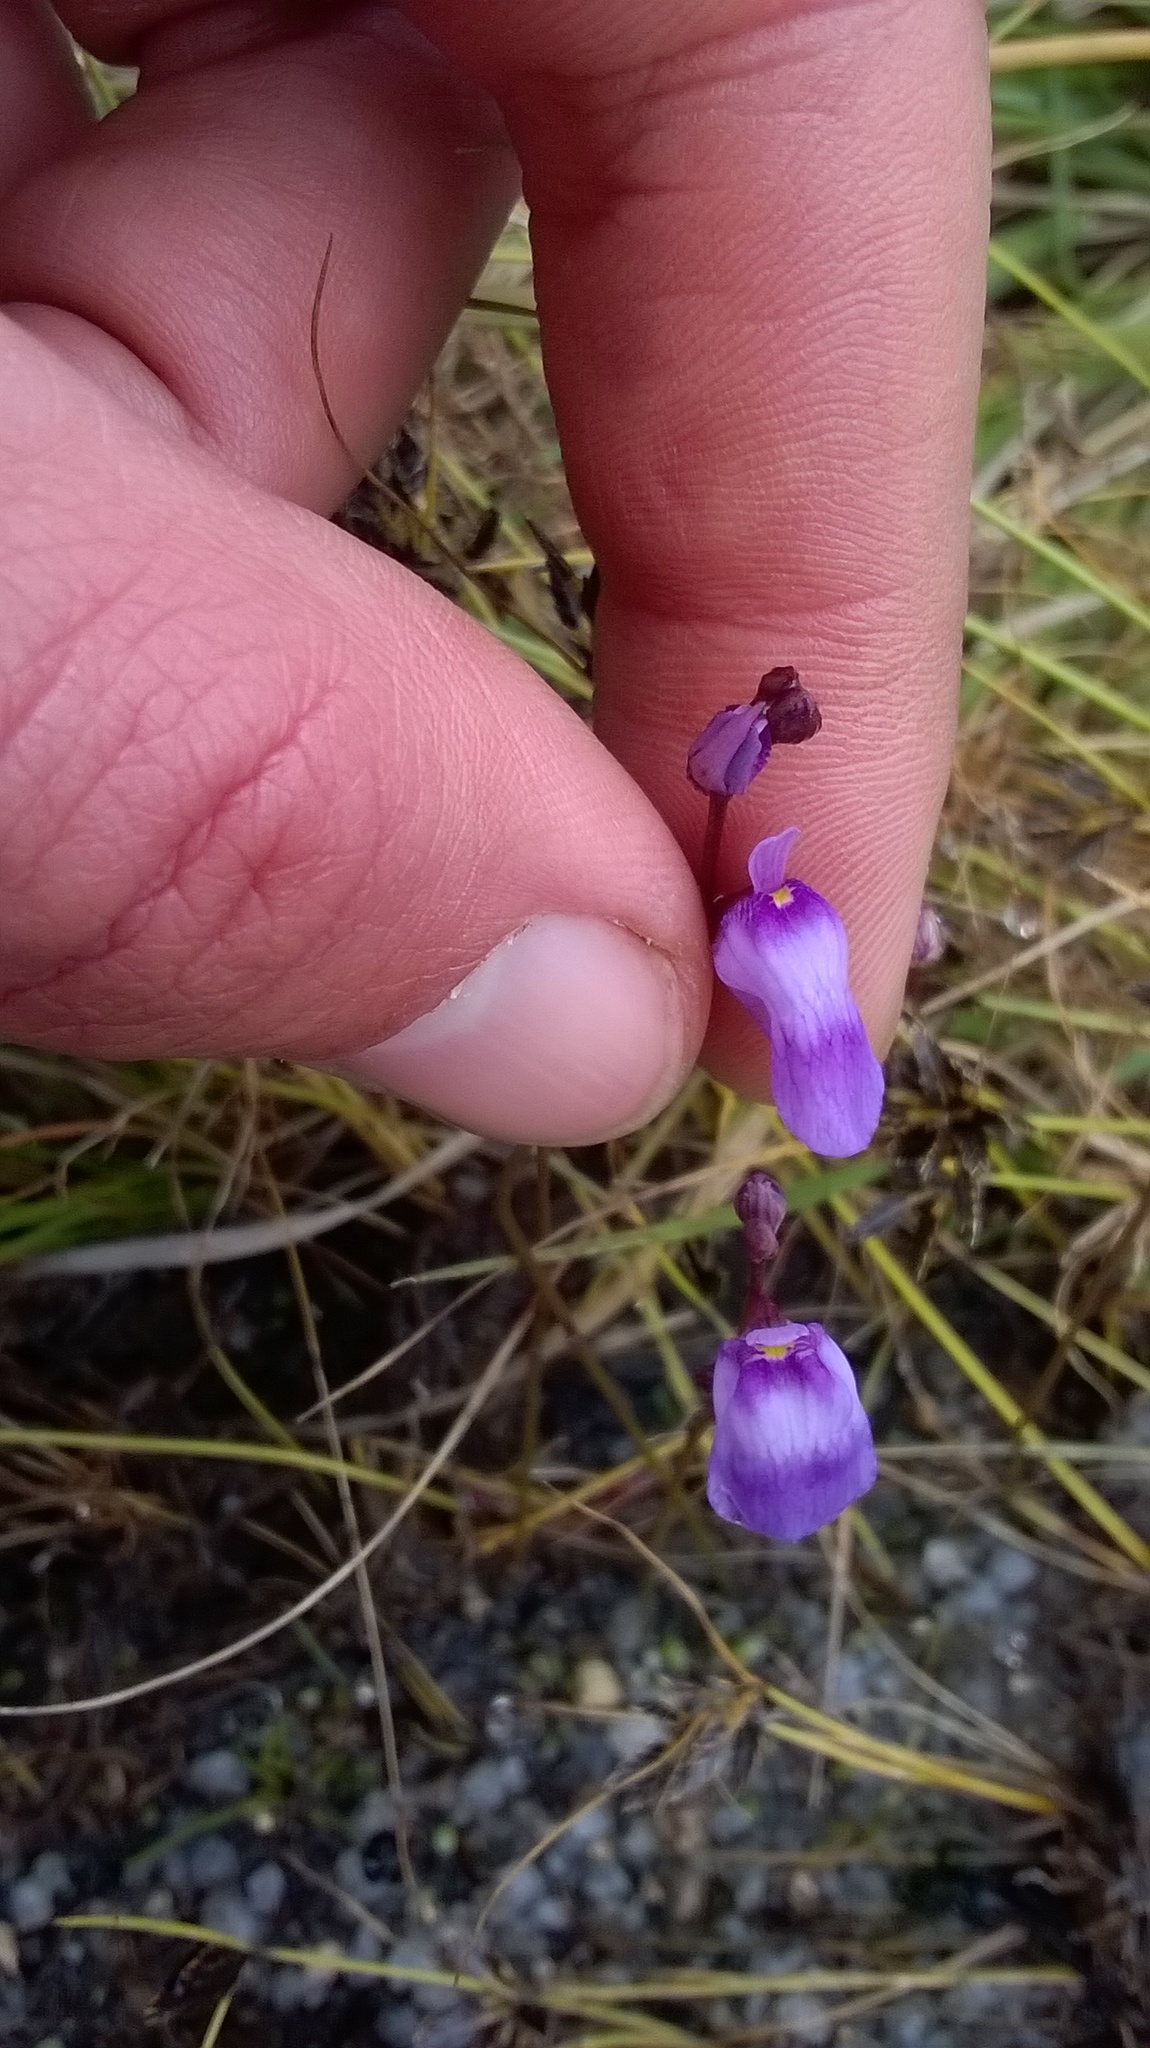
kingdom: Plantae
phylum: Tracheophyta
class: Magnoliopsida
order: Lamiales
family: Lentibulariaceae
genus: Utricularia
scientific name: Utricularia livida
